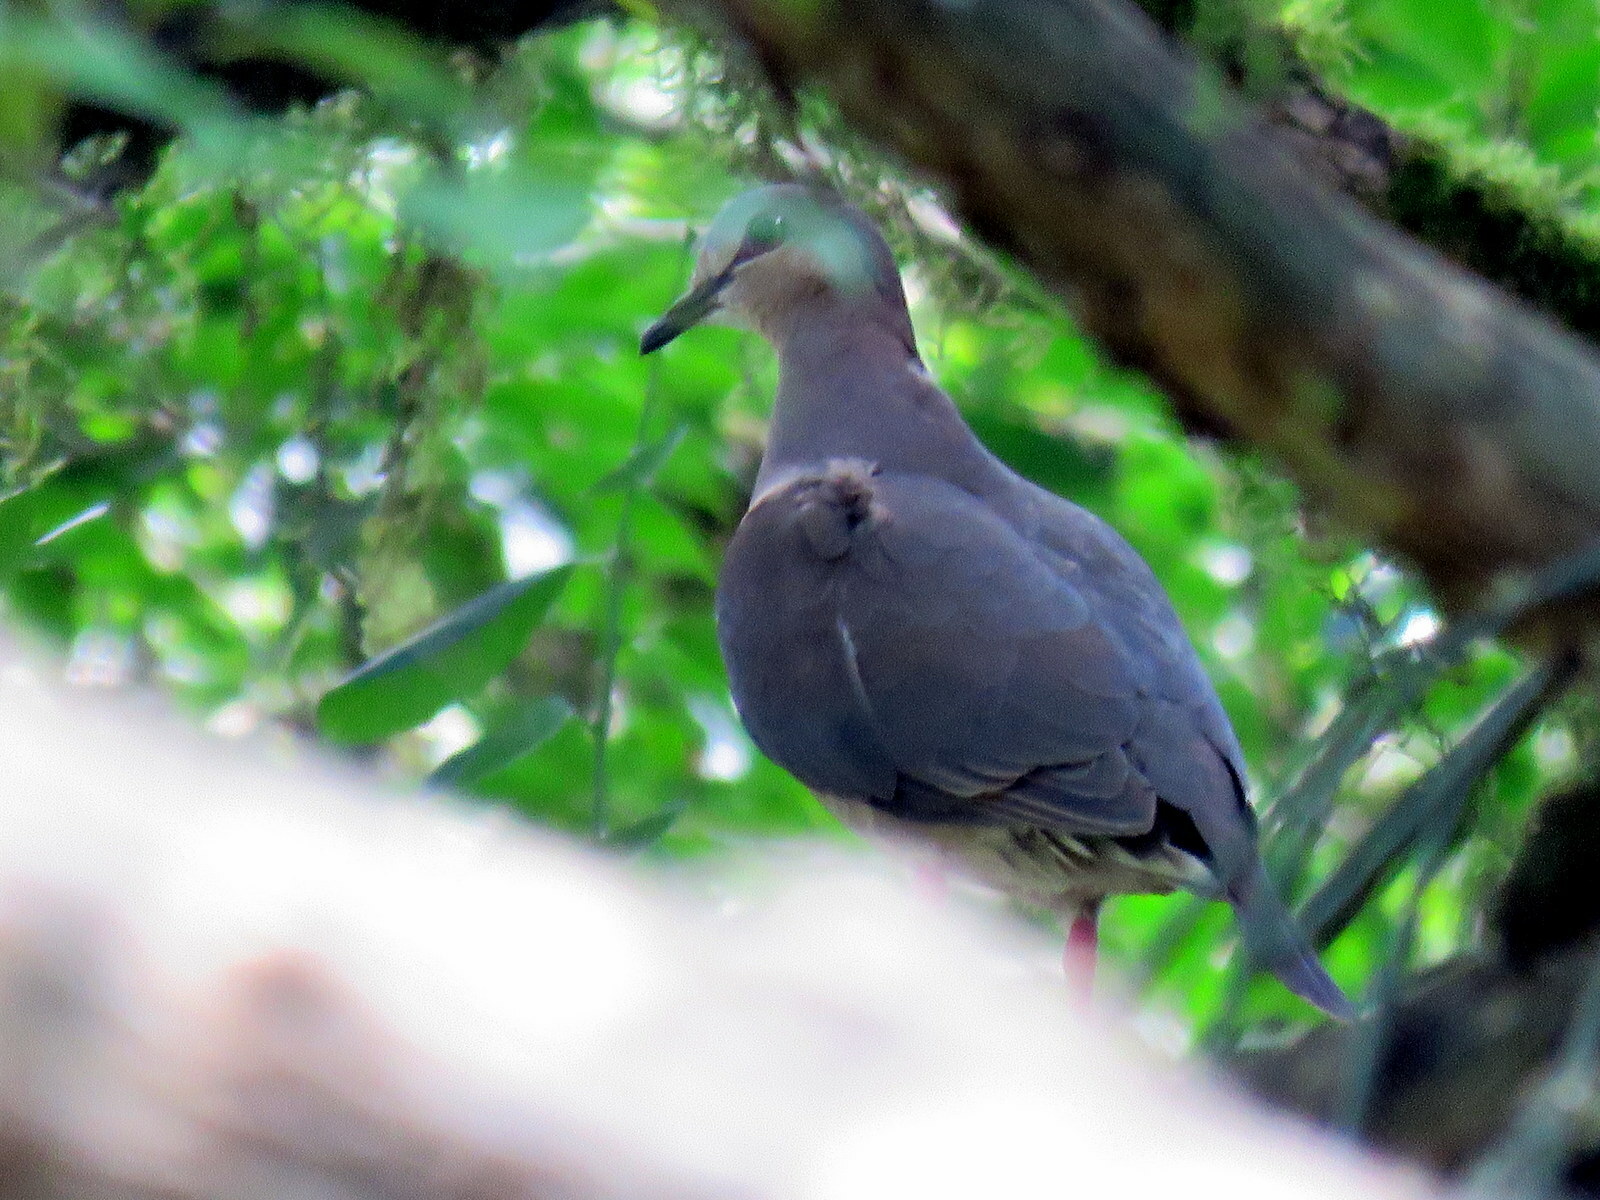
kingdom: Animalia
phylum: Chordata
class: Aves
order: Columbiformes
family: Columbidae
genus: Leptotila
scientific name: Leptotila rufaxilla
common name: Grey-fronted dove
